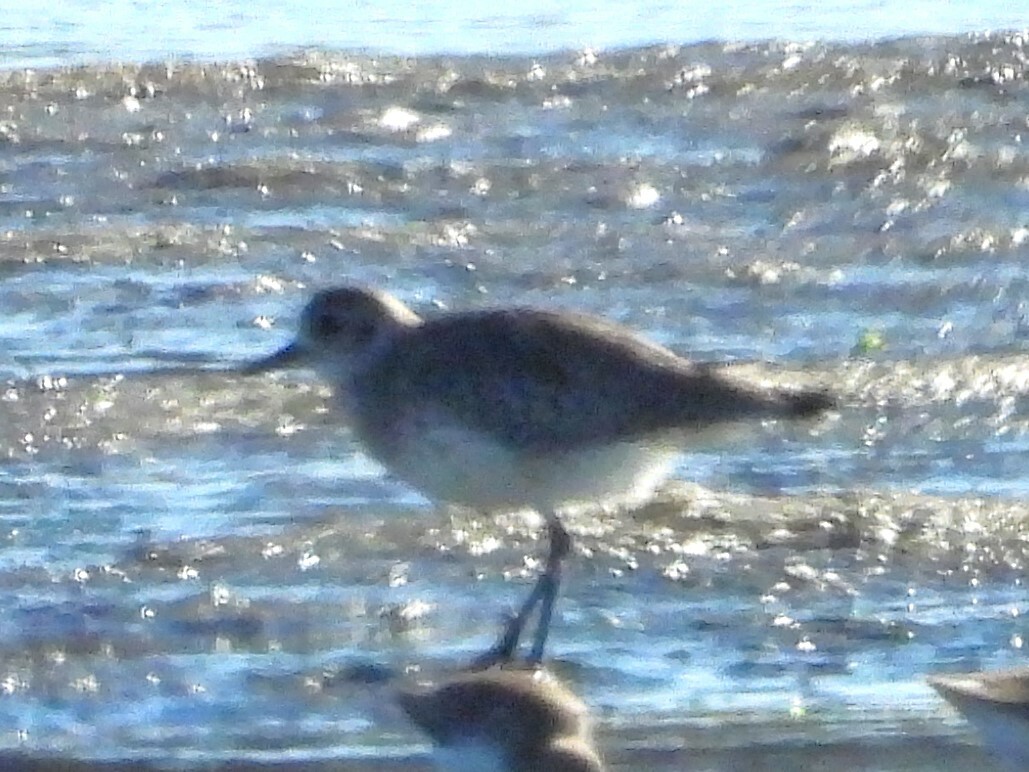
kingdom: Animalia
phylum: Chordata
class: Aves
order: Charadriiformes
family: Charadriidae
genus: Pluvialis
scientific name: Pluvialis squatarola
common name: Grey plover
